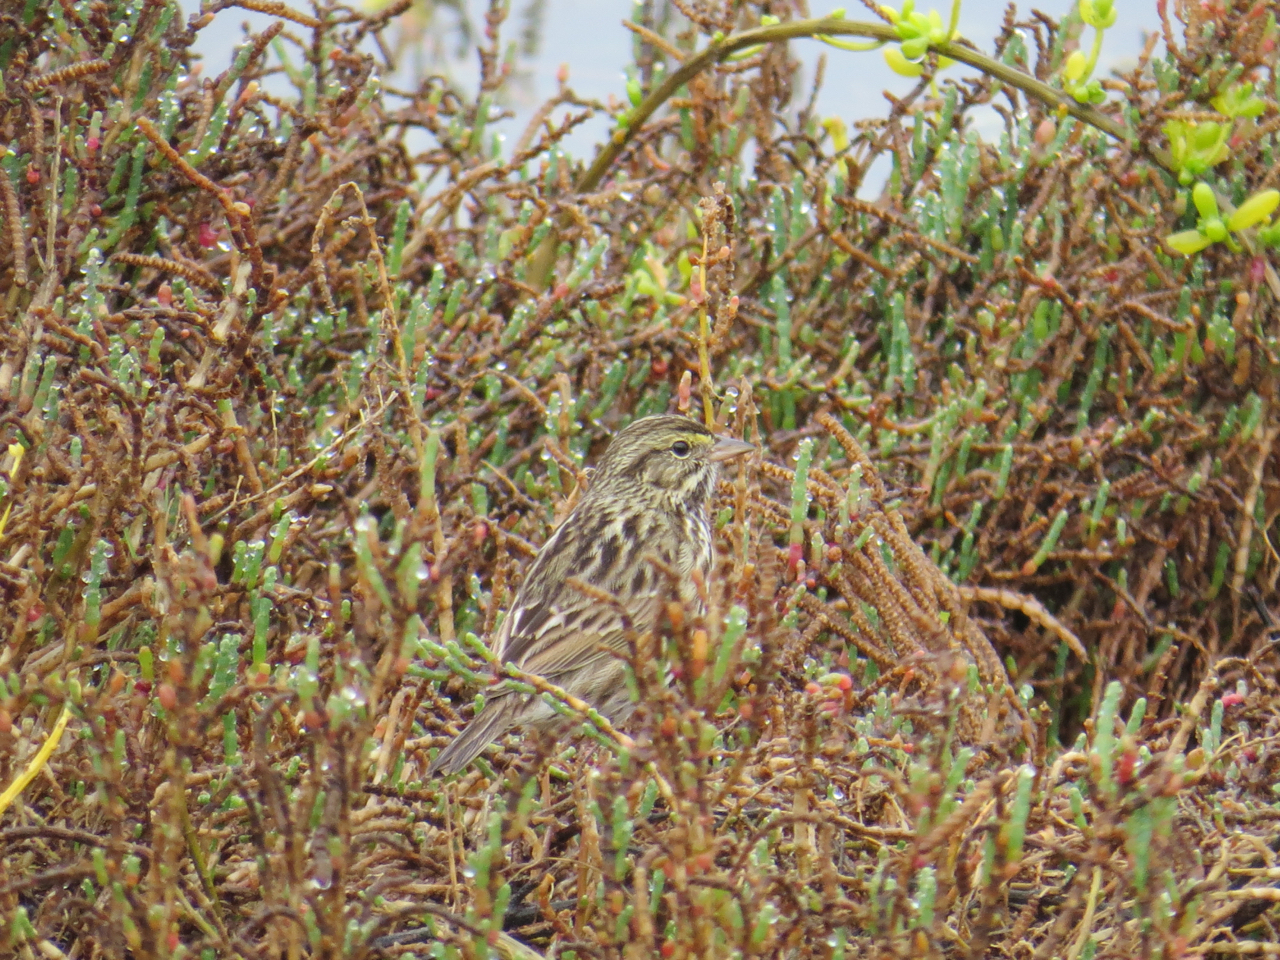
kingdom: Animalia
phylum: Chordata
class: Aves
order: Passeriformes
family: Passerellidae
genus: Passerculus
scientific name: Passerculus sandwichensis
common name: Savannah sparrow
